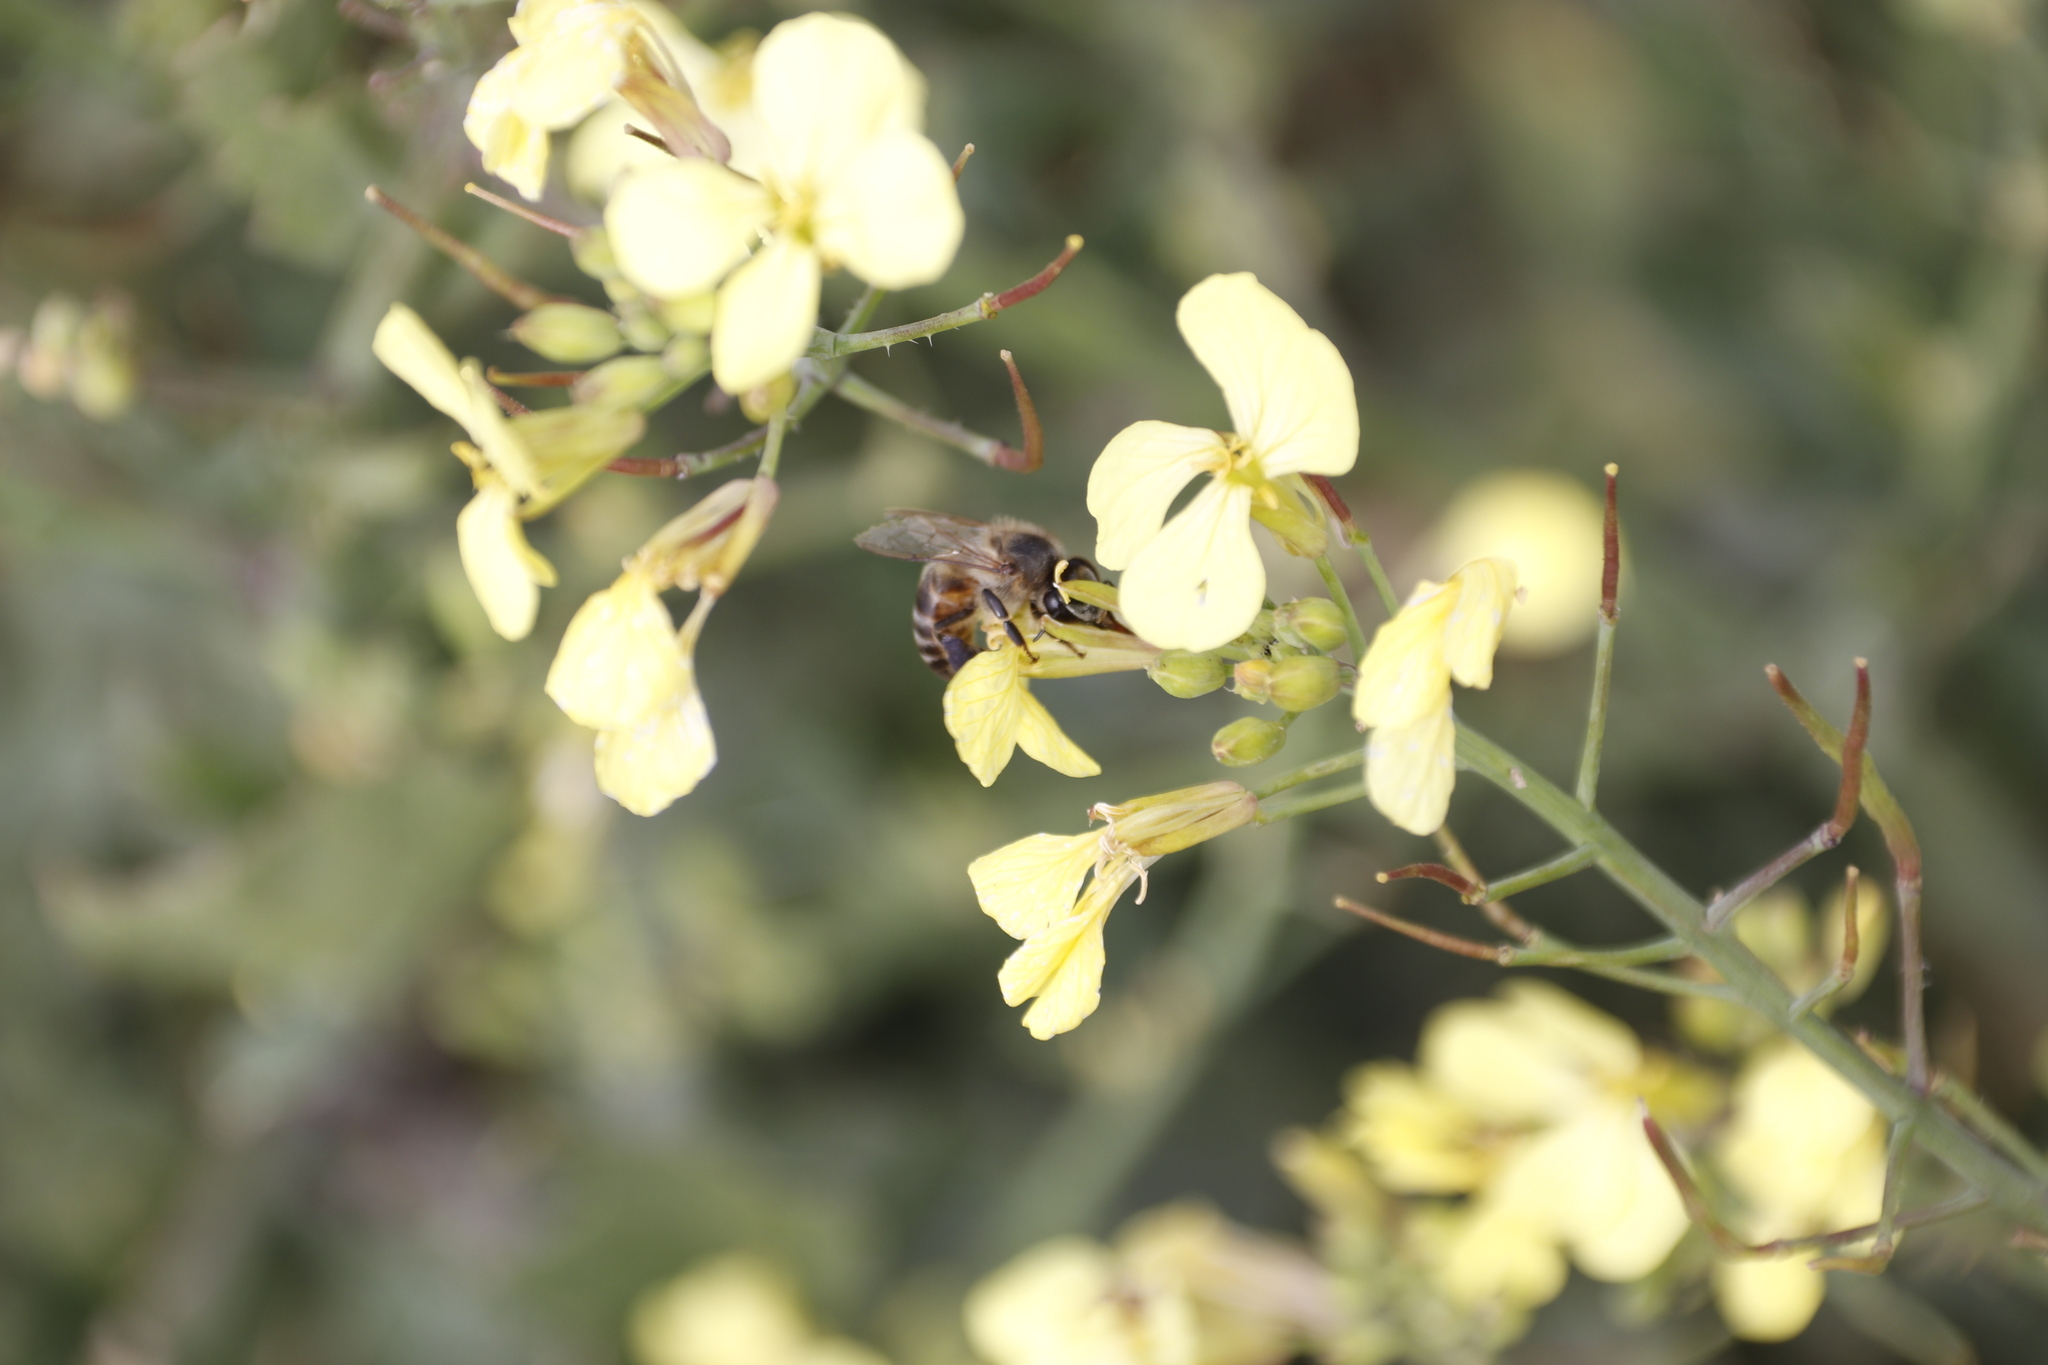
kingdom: Animalia
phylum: Arthropoda
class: Insecta
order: Hymenoptera
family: Apidae
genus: Apis
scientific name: Apis mellifera
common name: Honey bee
